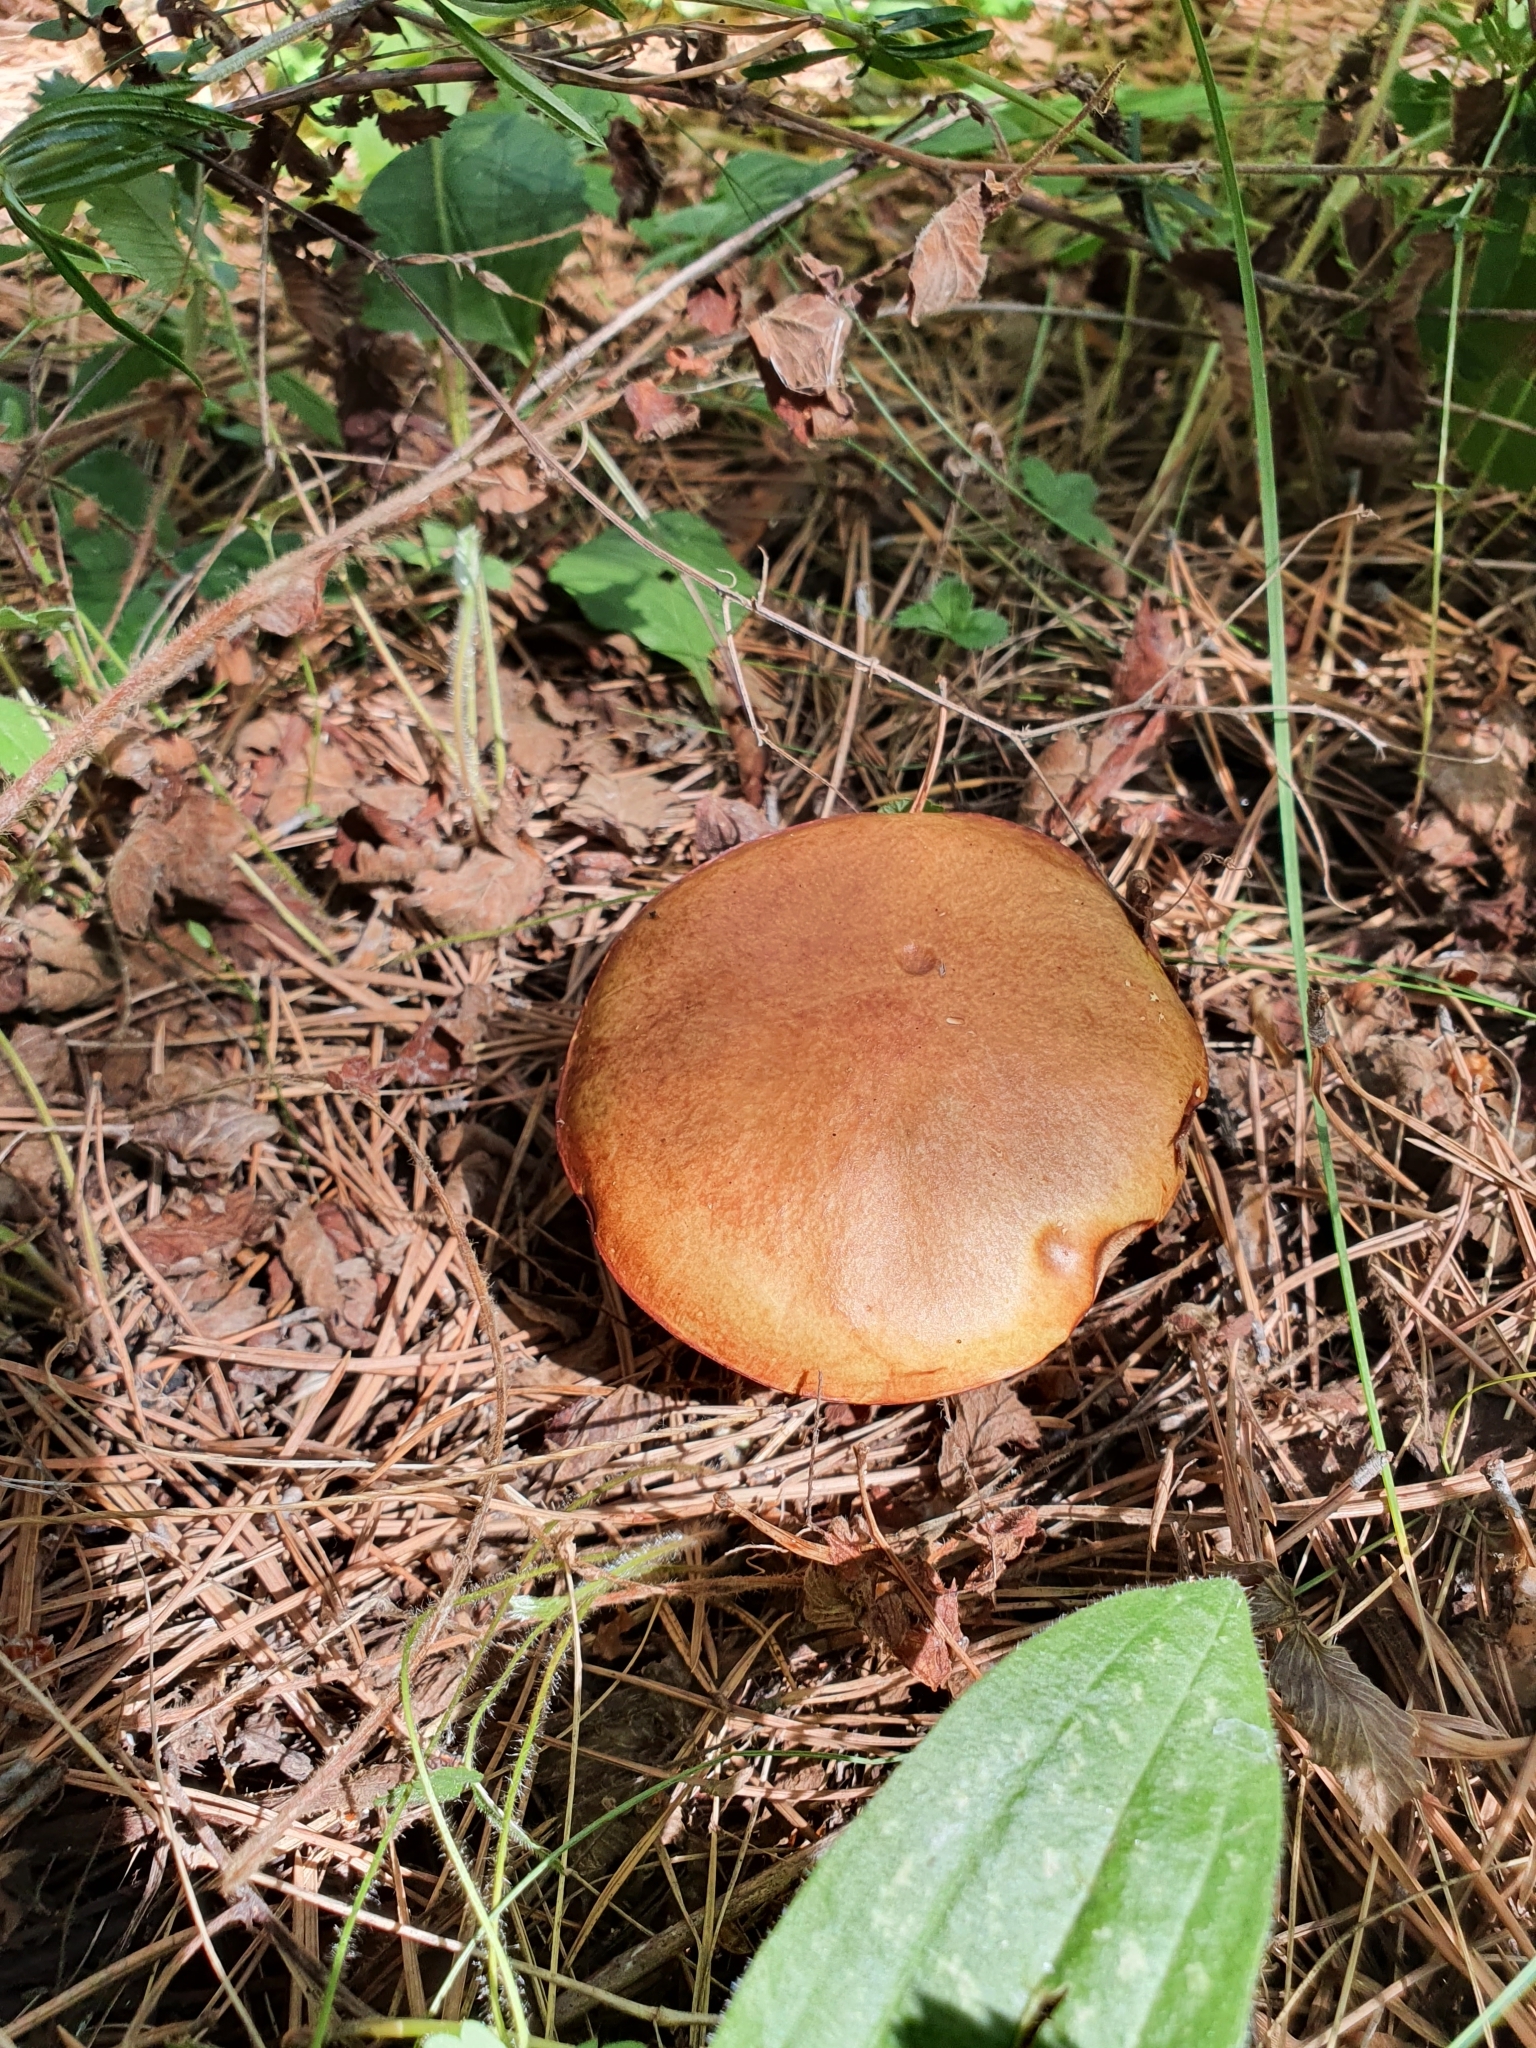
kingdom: Fungi
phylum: Basidiomycota
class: Agaricomycetes
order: Boletales
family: Suillaceae
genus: Suillus
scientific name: Suillus granulatus
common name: Weeping bolete
